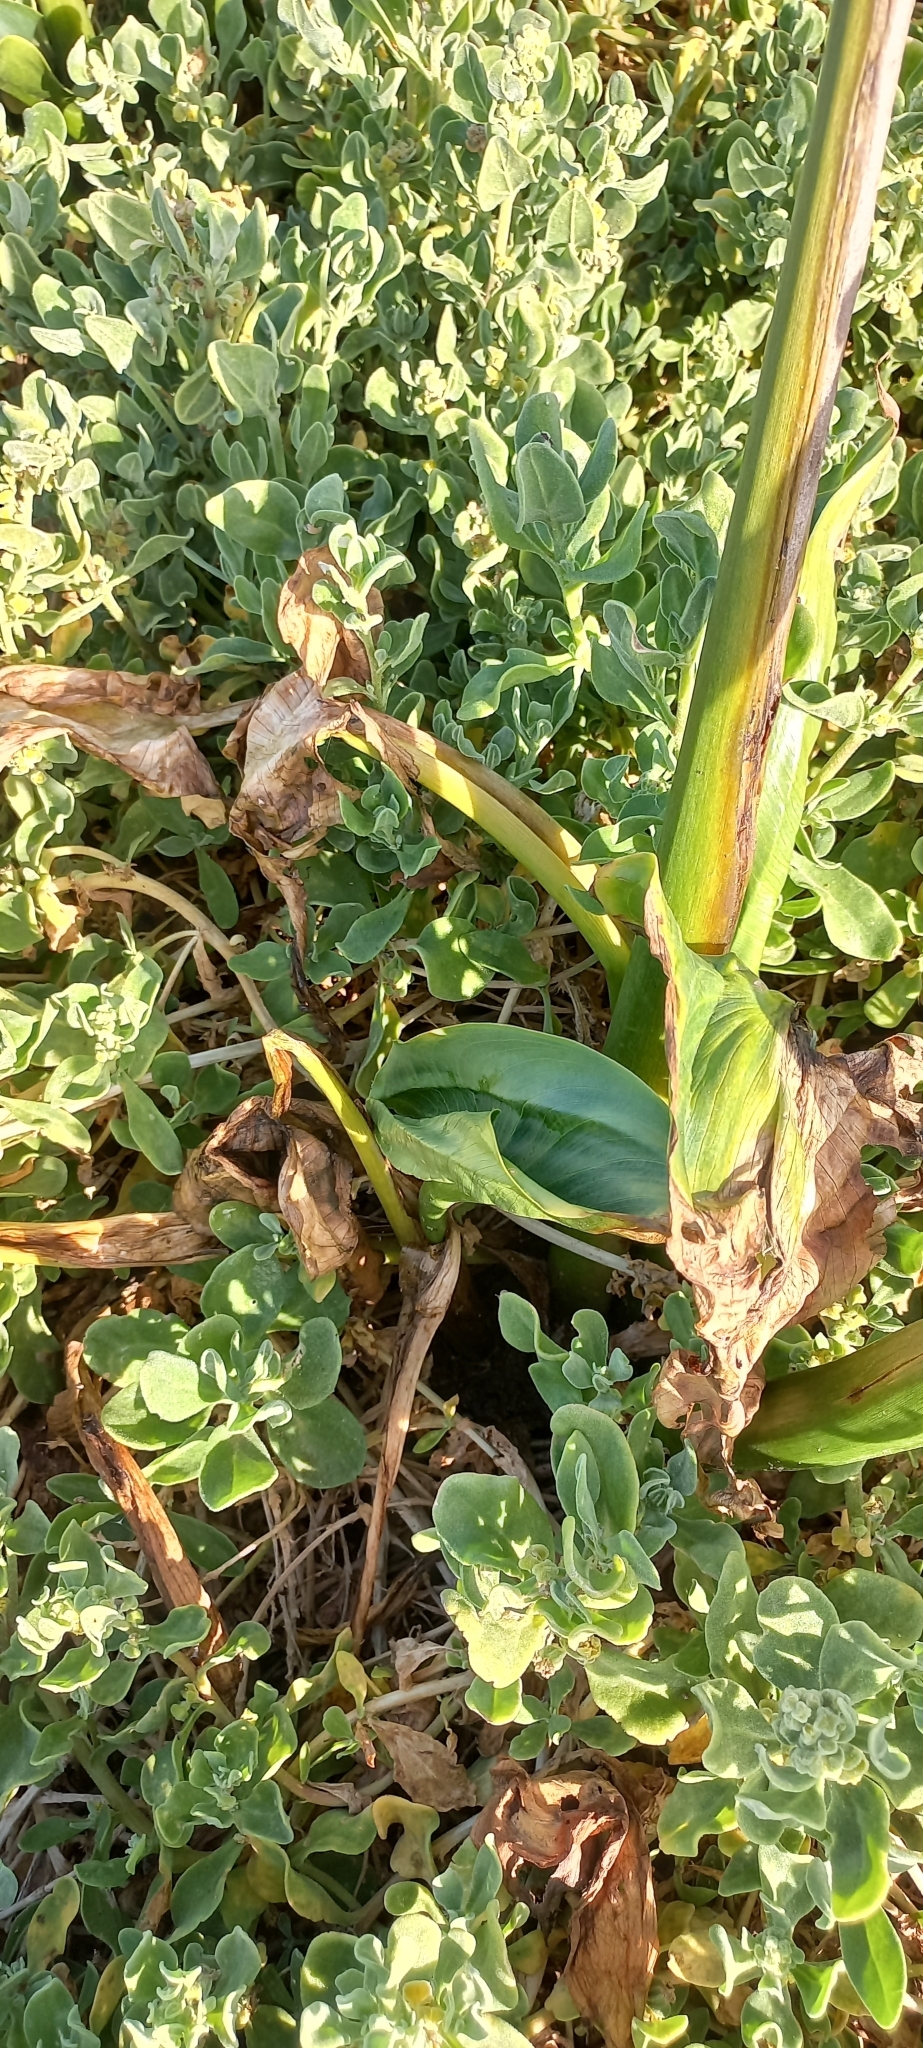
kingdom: Plantae
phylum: Tracheophyta
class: Liliopsida
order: Alismatales
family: Araceae
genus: Zantedeschia
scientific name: Zantedeschia aethiopica
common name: Altar-lily
